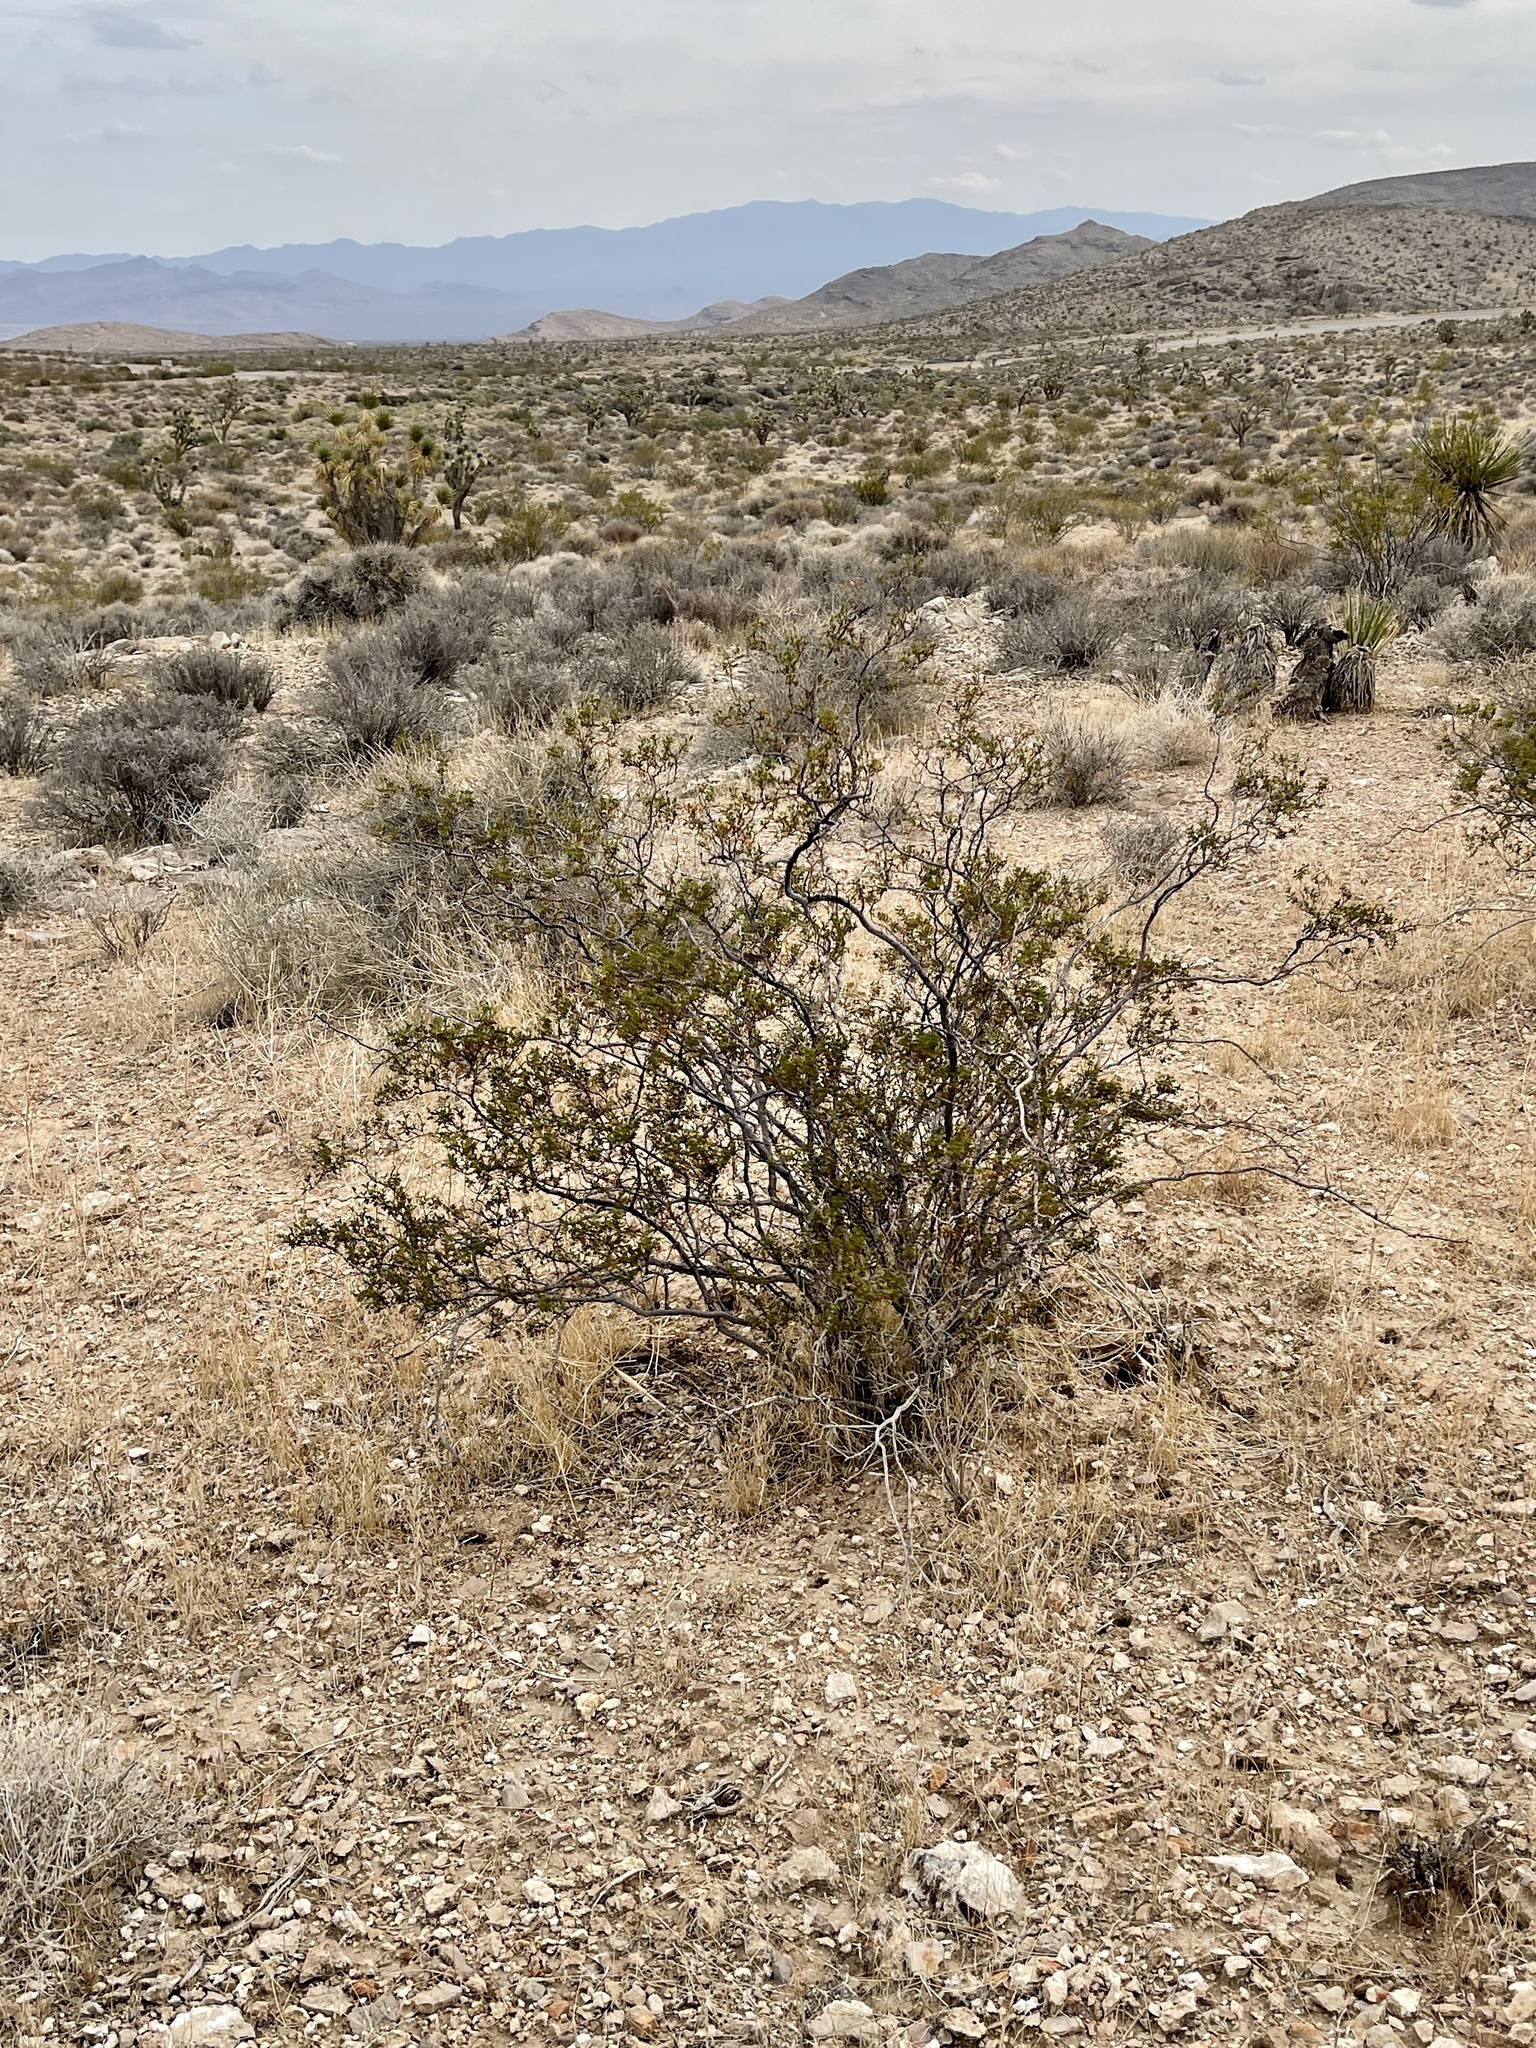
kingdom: Plantae
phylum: Tracheophyta
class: Magnoliopsida
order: Zygophyllales
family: Zygophyllaceae
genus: Larrea
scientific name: Larrea tridentata
